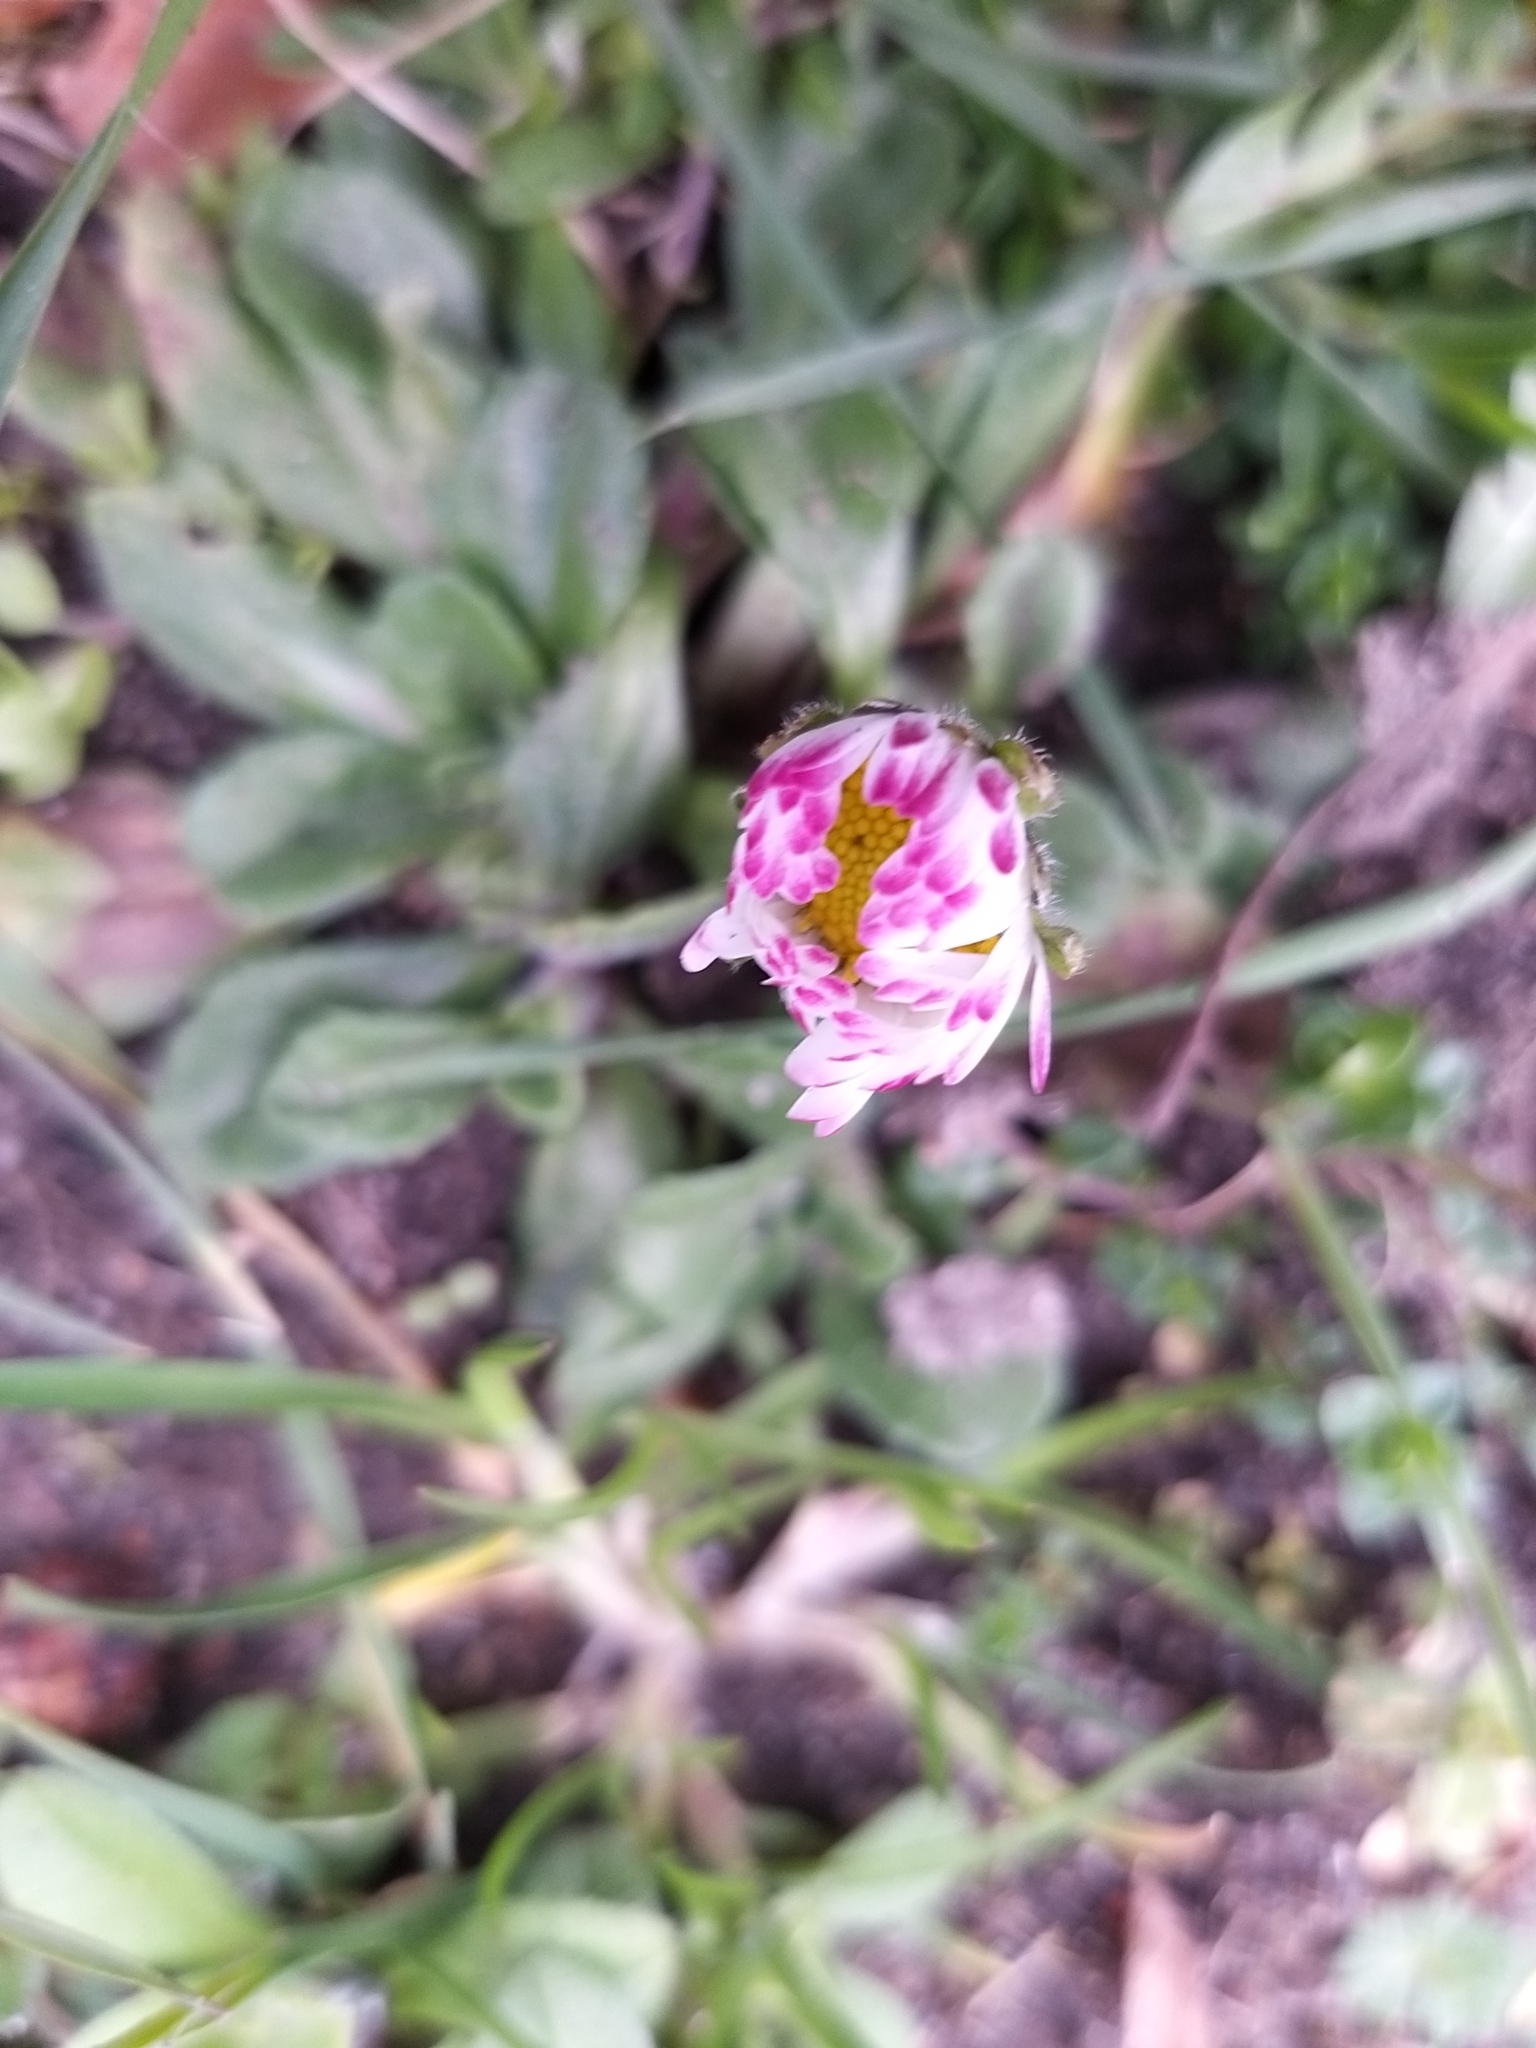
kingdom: Plantae
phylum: Tracheophyta
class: Magnoliopsida
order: Asterales
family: Asteraceae
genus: Bellis
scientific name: Bellis perennis
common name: Lawndaisy
